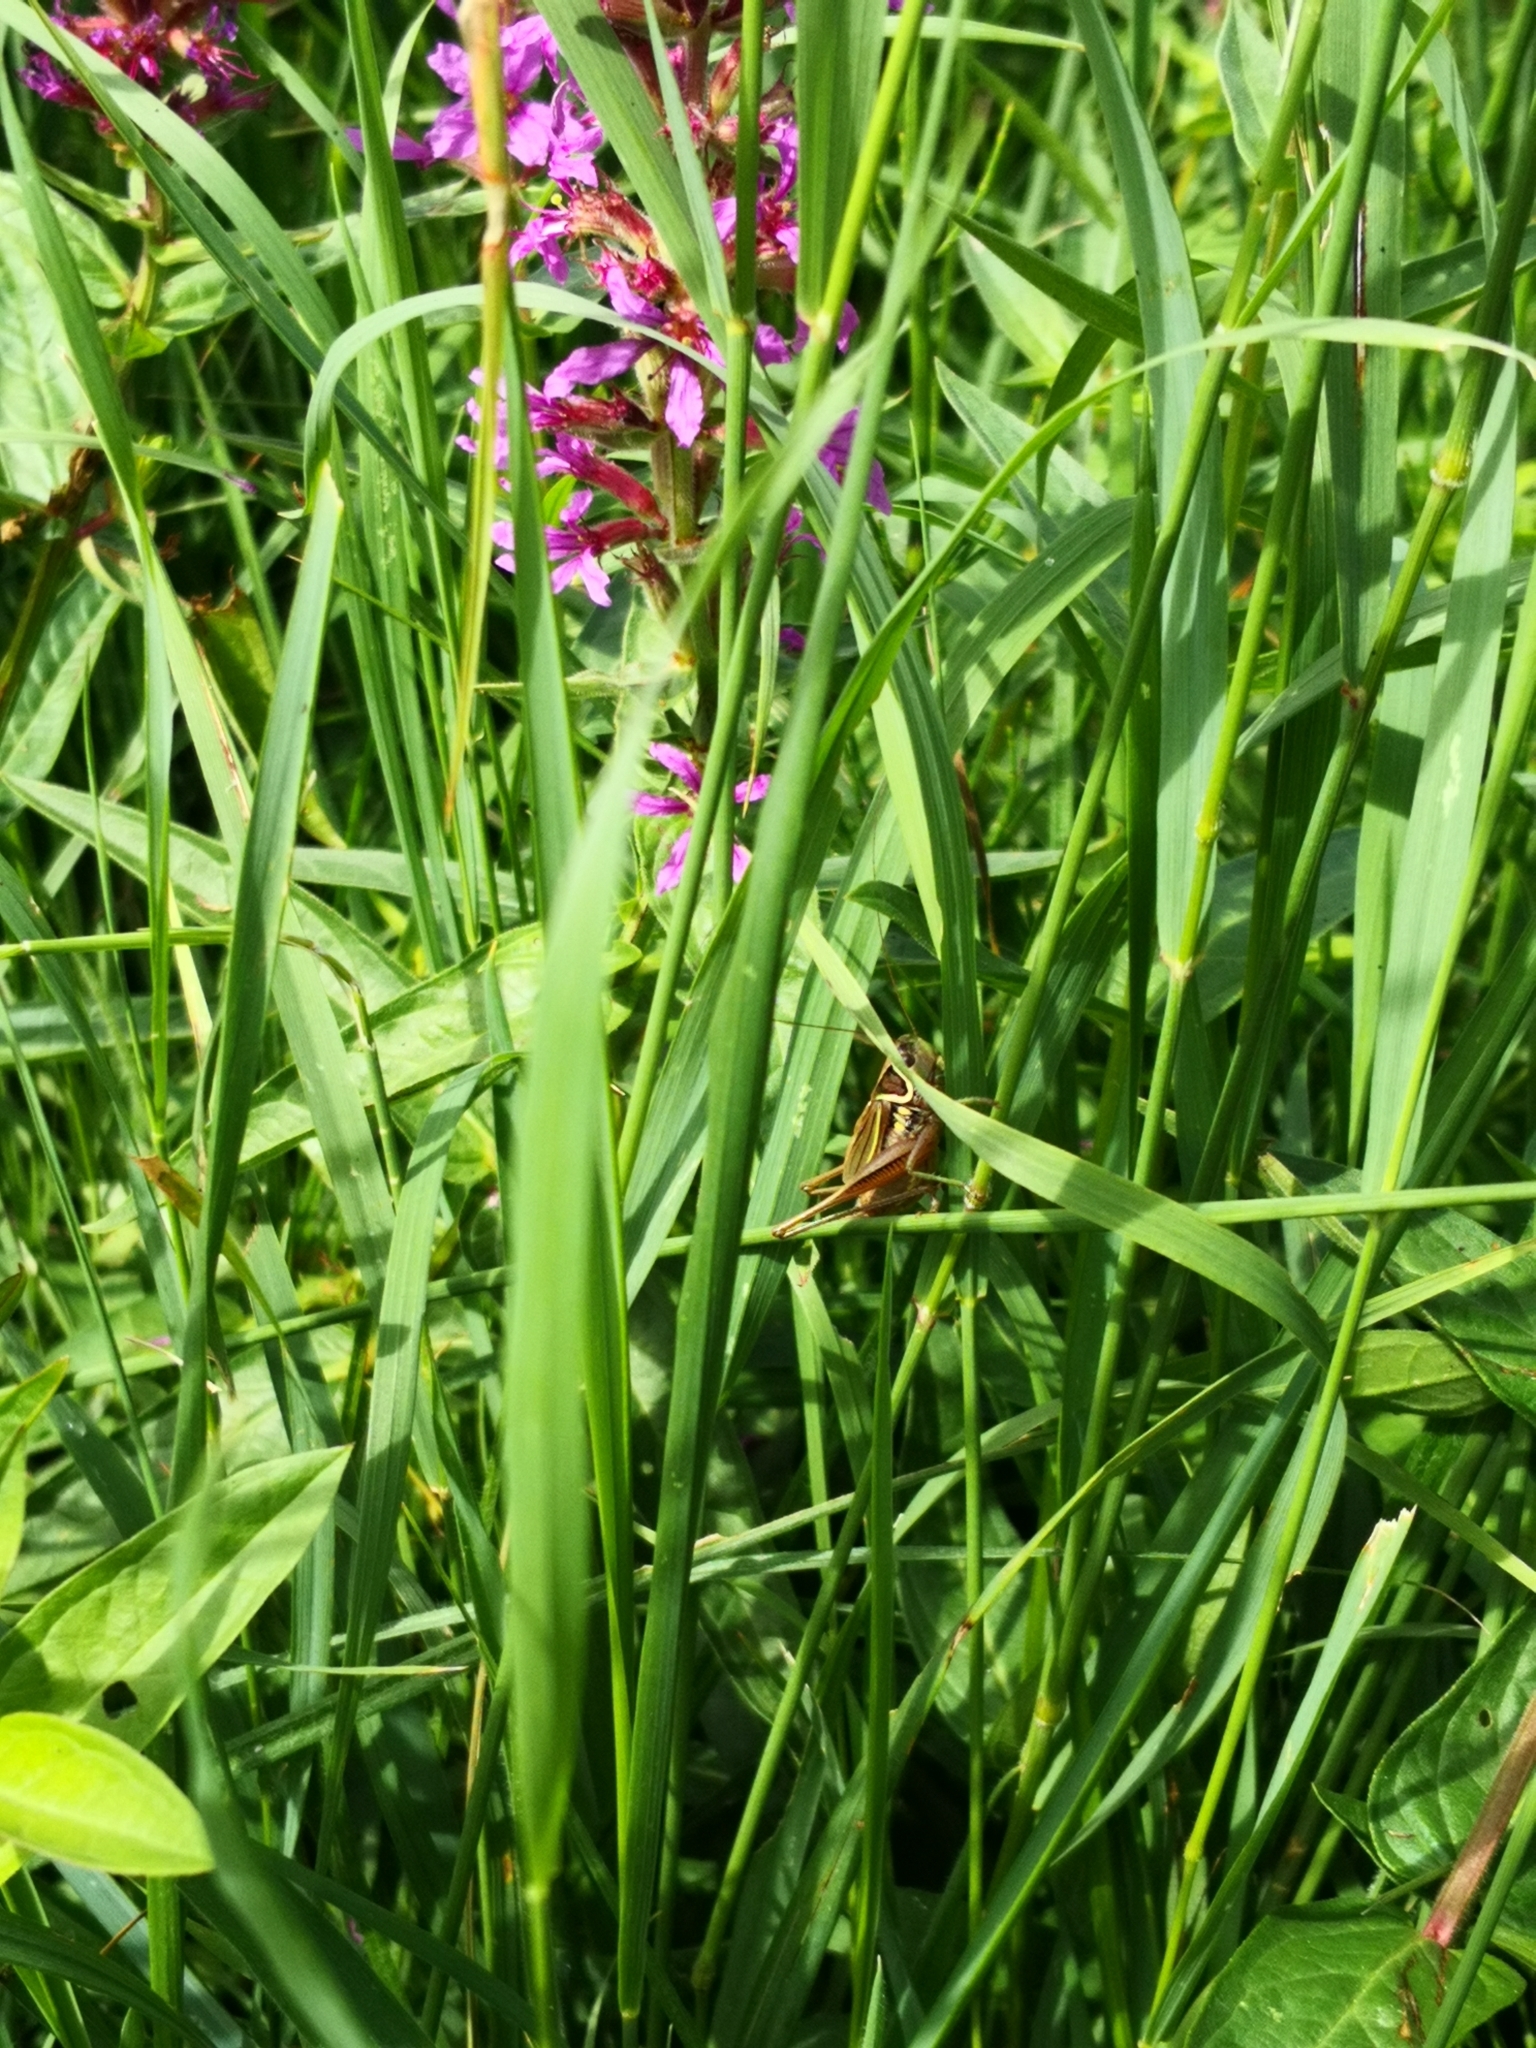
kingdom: Animalia
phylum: Arthropoda
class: Insecta
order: Orthoptera
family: Tettigoniidae
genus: Roeseliana
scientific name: Roeseliana roeselii
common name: Roesel's bush cricket
